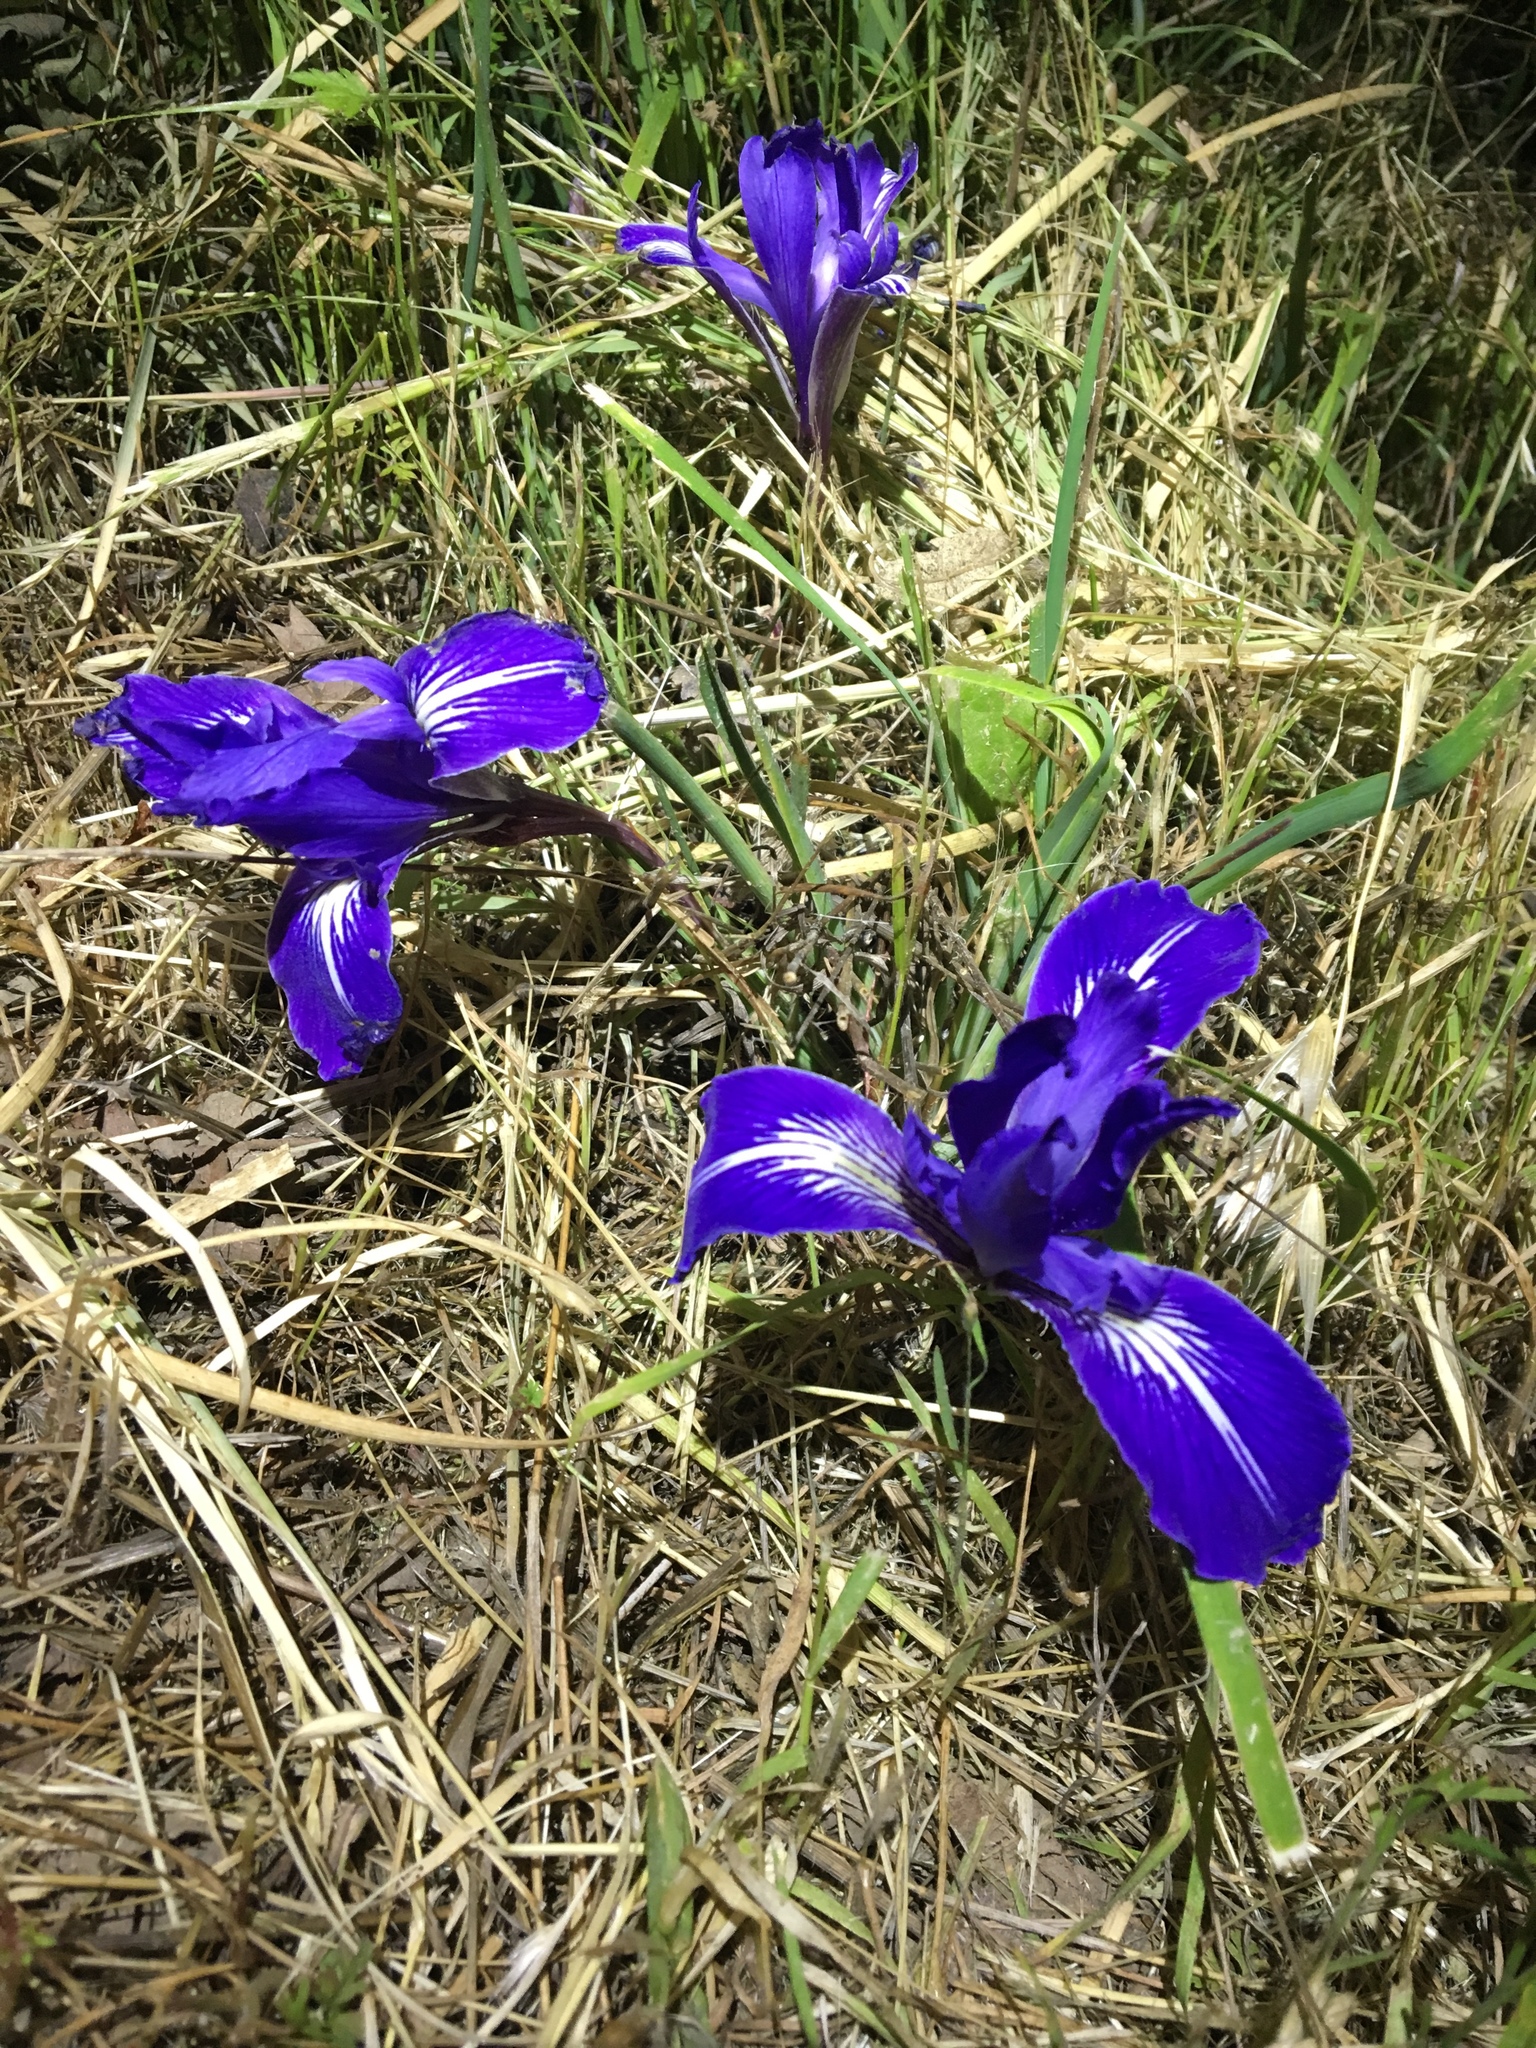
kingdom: Plantae
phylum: Tracheophyta
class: Liliopsida
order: Asparagales
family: Iridaceae
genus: Iris
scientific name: Iris macrosiphon
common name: Ground iris
